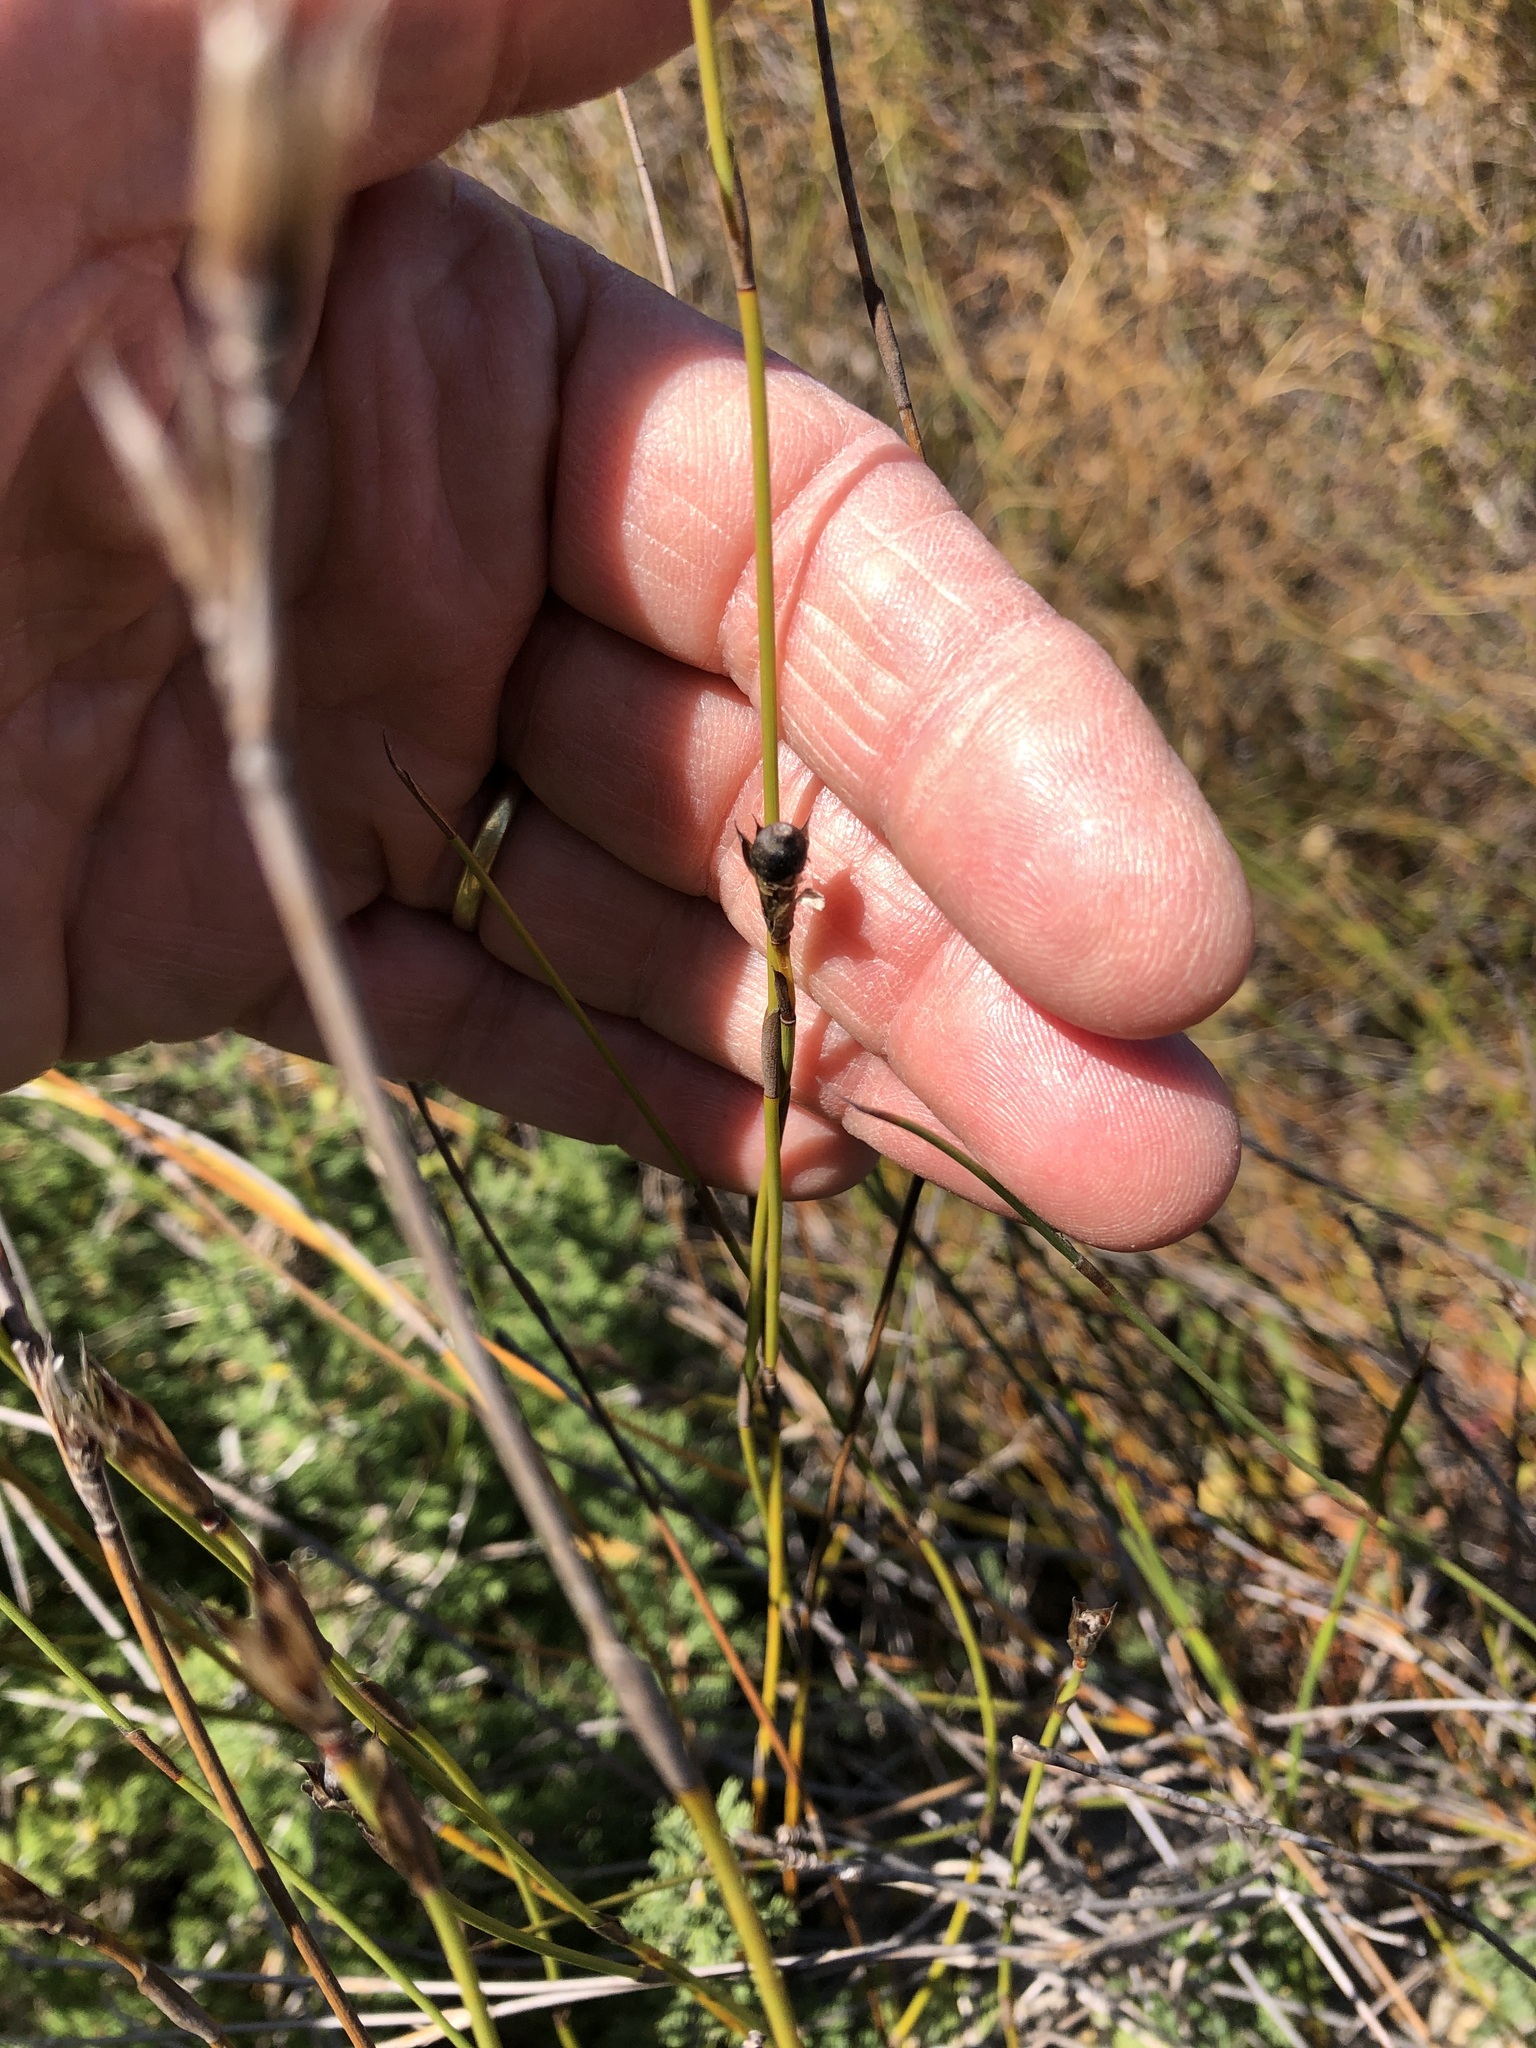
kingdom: Plantae
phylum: Tracheophyta
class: Liliopsida
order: Poales
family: Restionaceae
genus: Willdenowia
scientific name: Willdenowia sulcata
